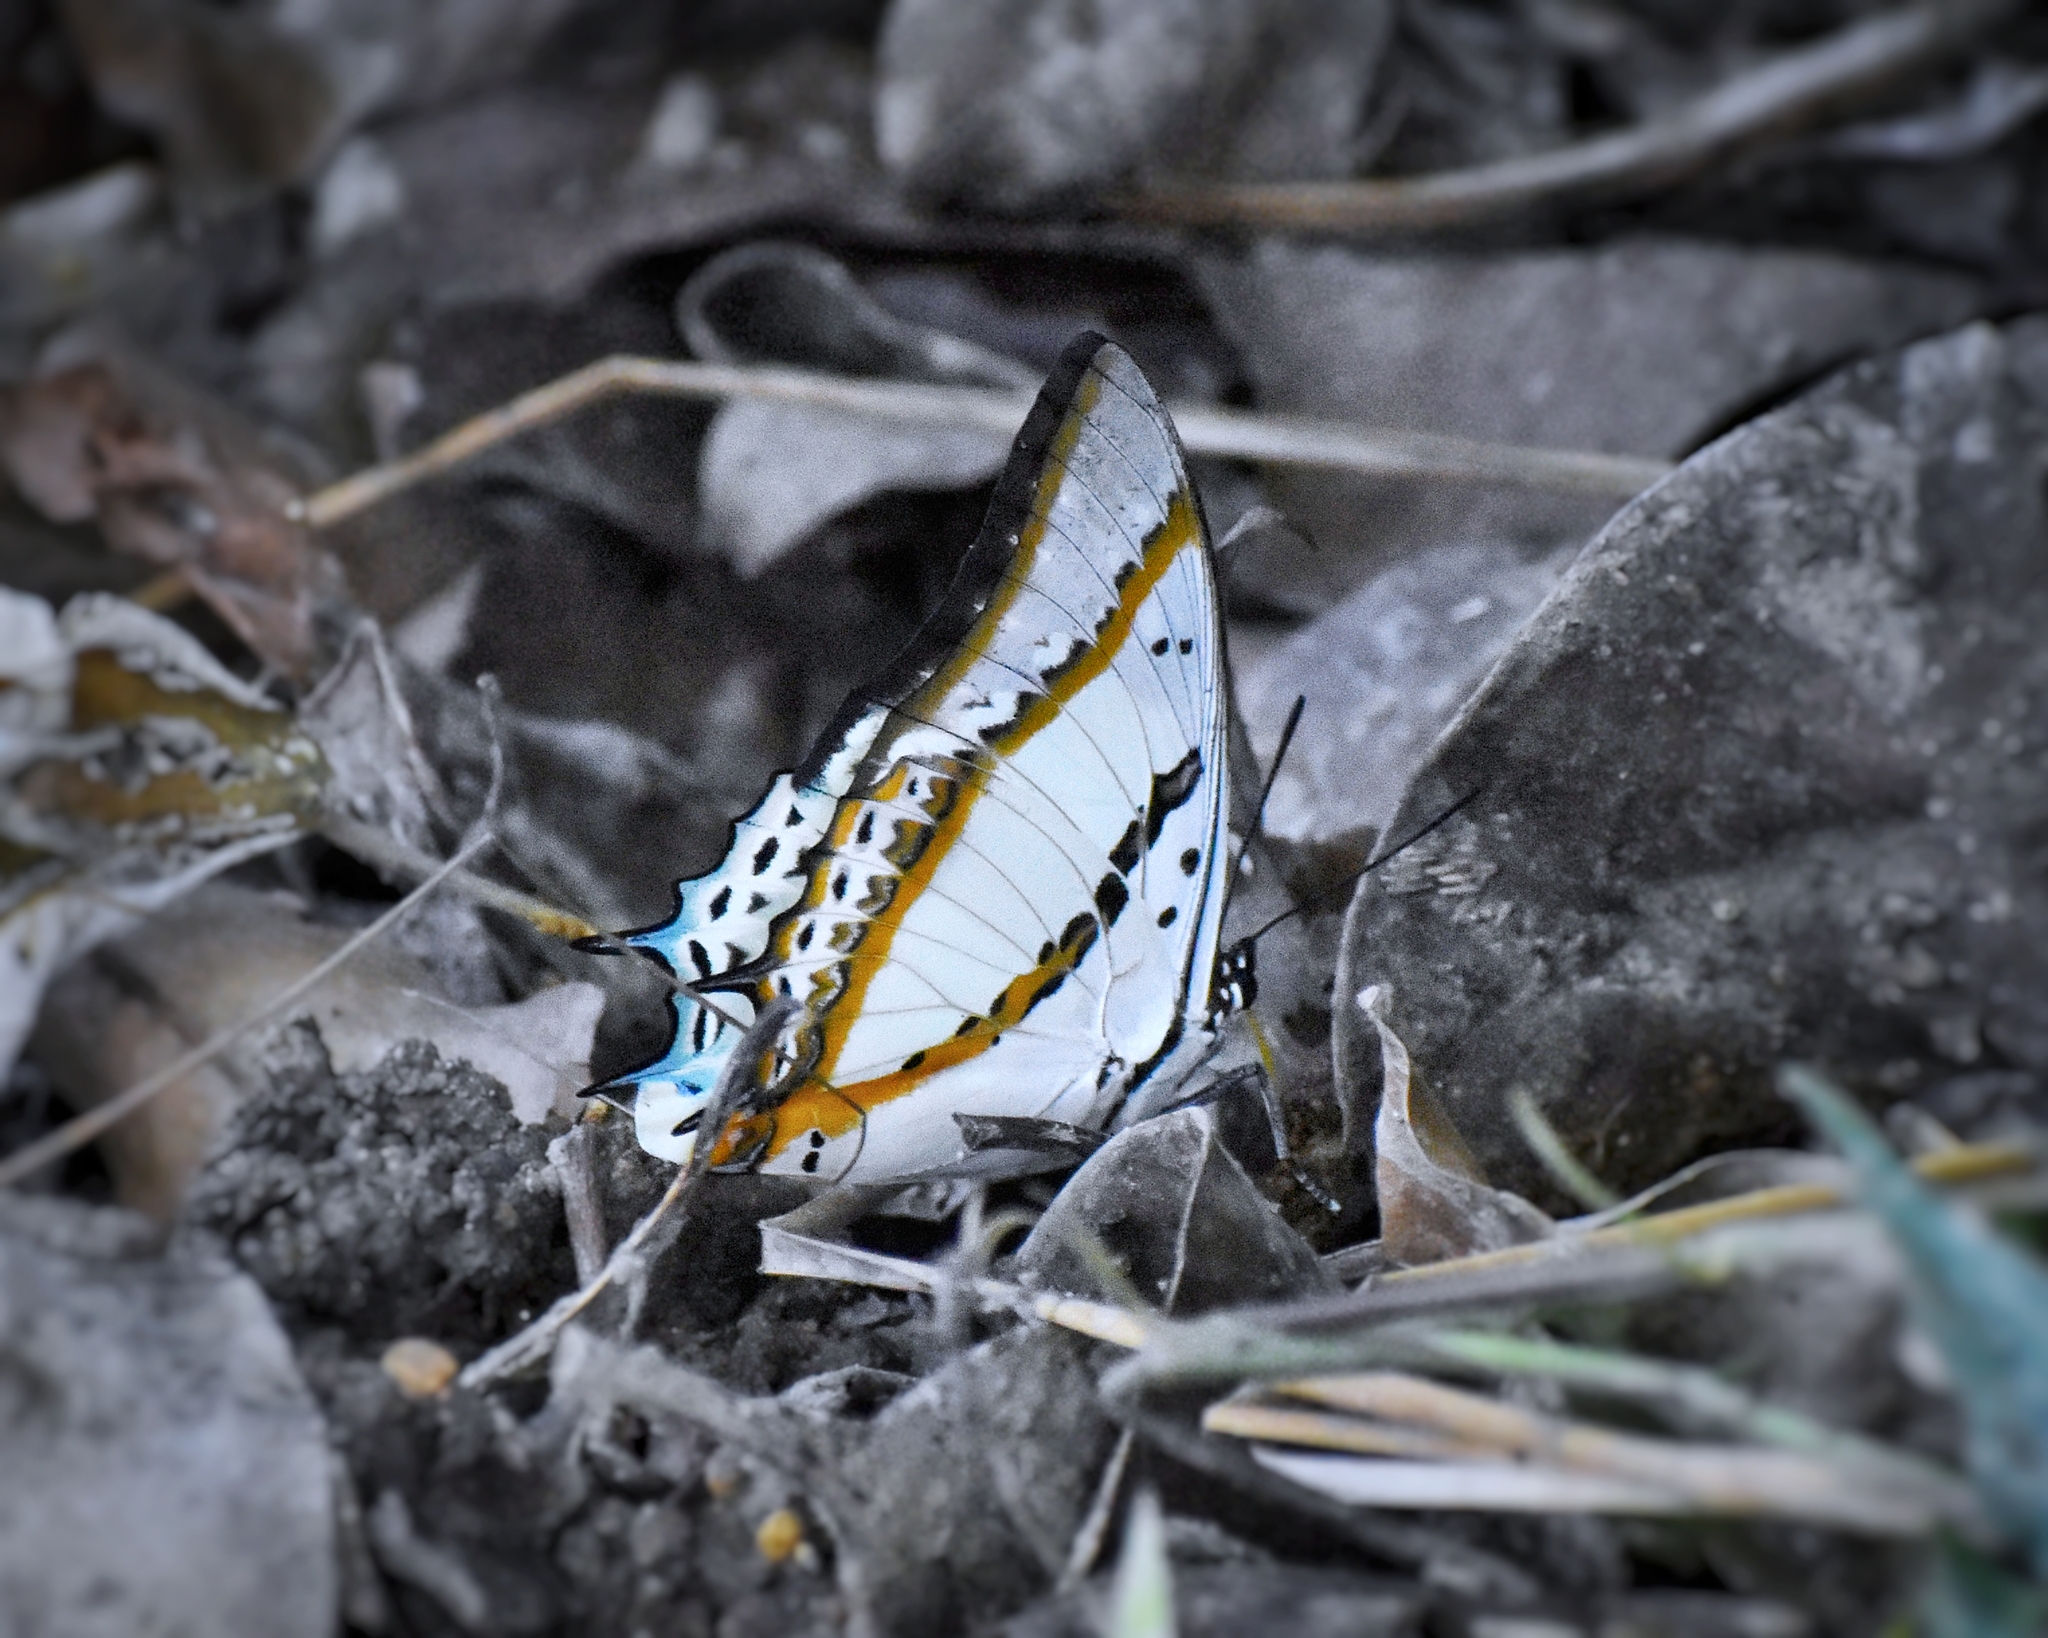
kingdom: Animalia
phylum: Arthropoda
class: Insecta
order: Lepidoptera
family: Nymphalidae
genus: Polyura
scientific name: Polyura nepenthes
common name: Shan nawab
